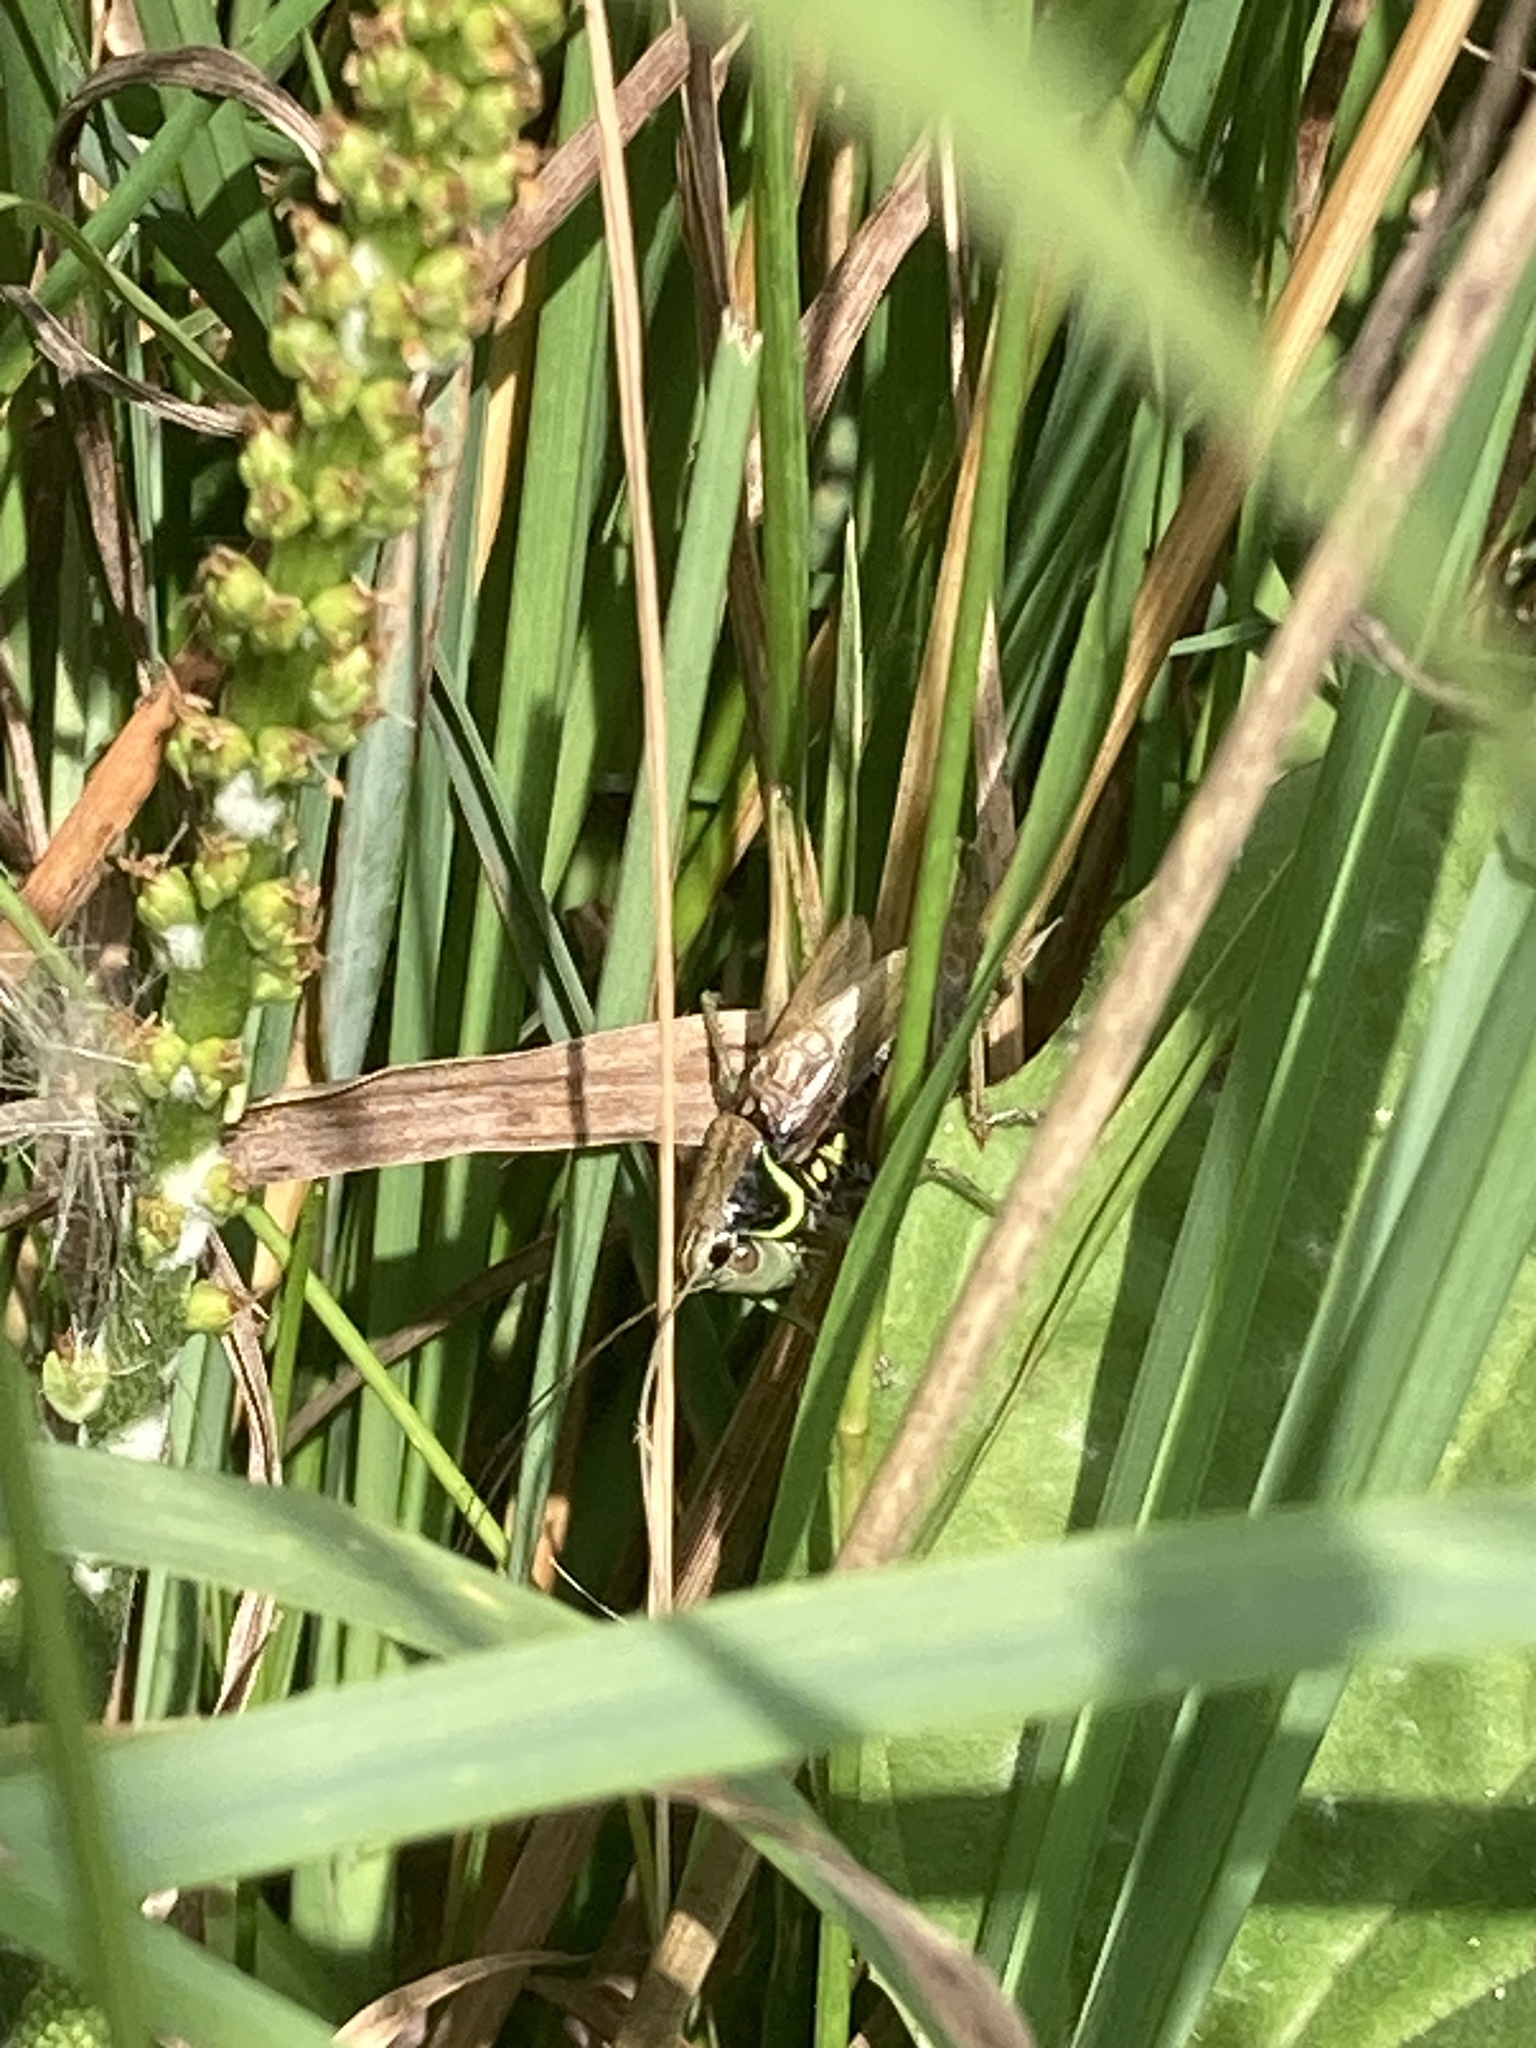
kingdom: Animalia
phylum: Arthropoda
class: Insecta
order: Orthoptera
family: Tettigoniidae
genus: Roeseliana
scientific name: Roeseliana roeselii
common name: Roesel's bush cricket
